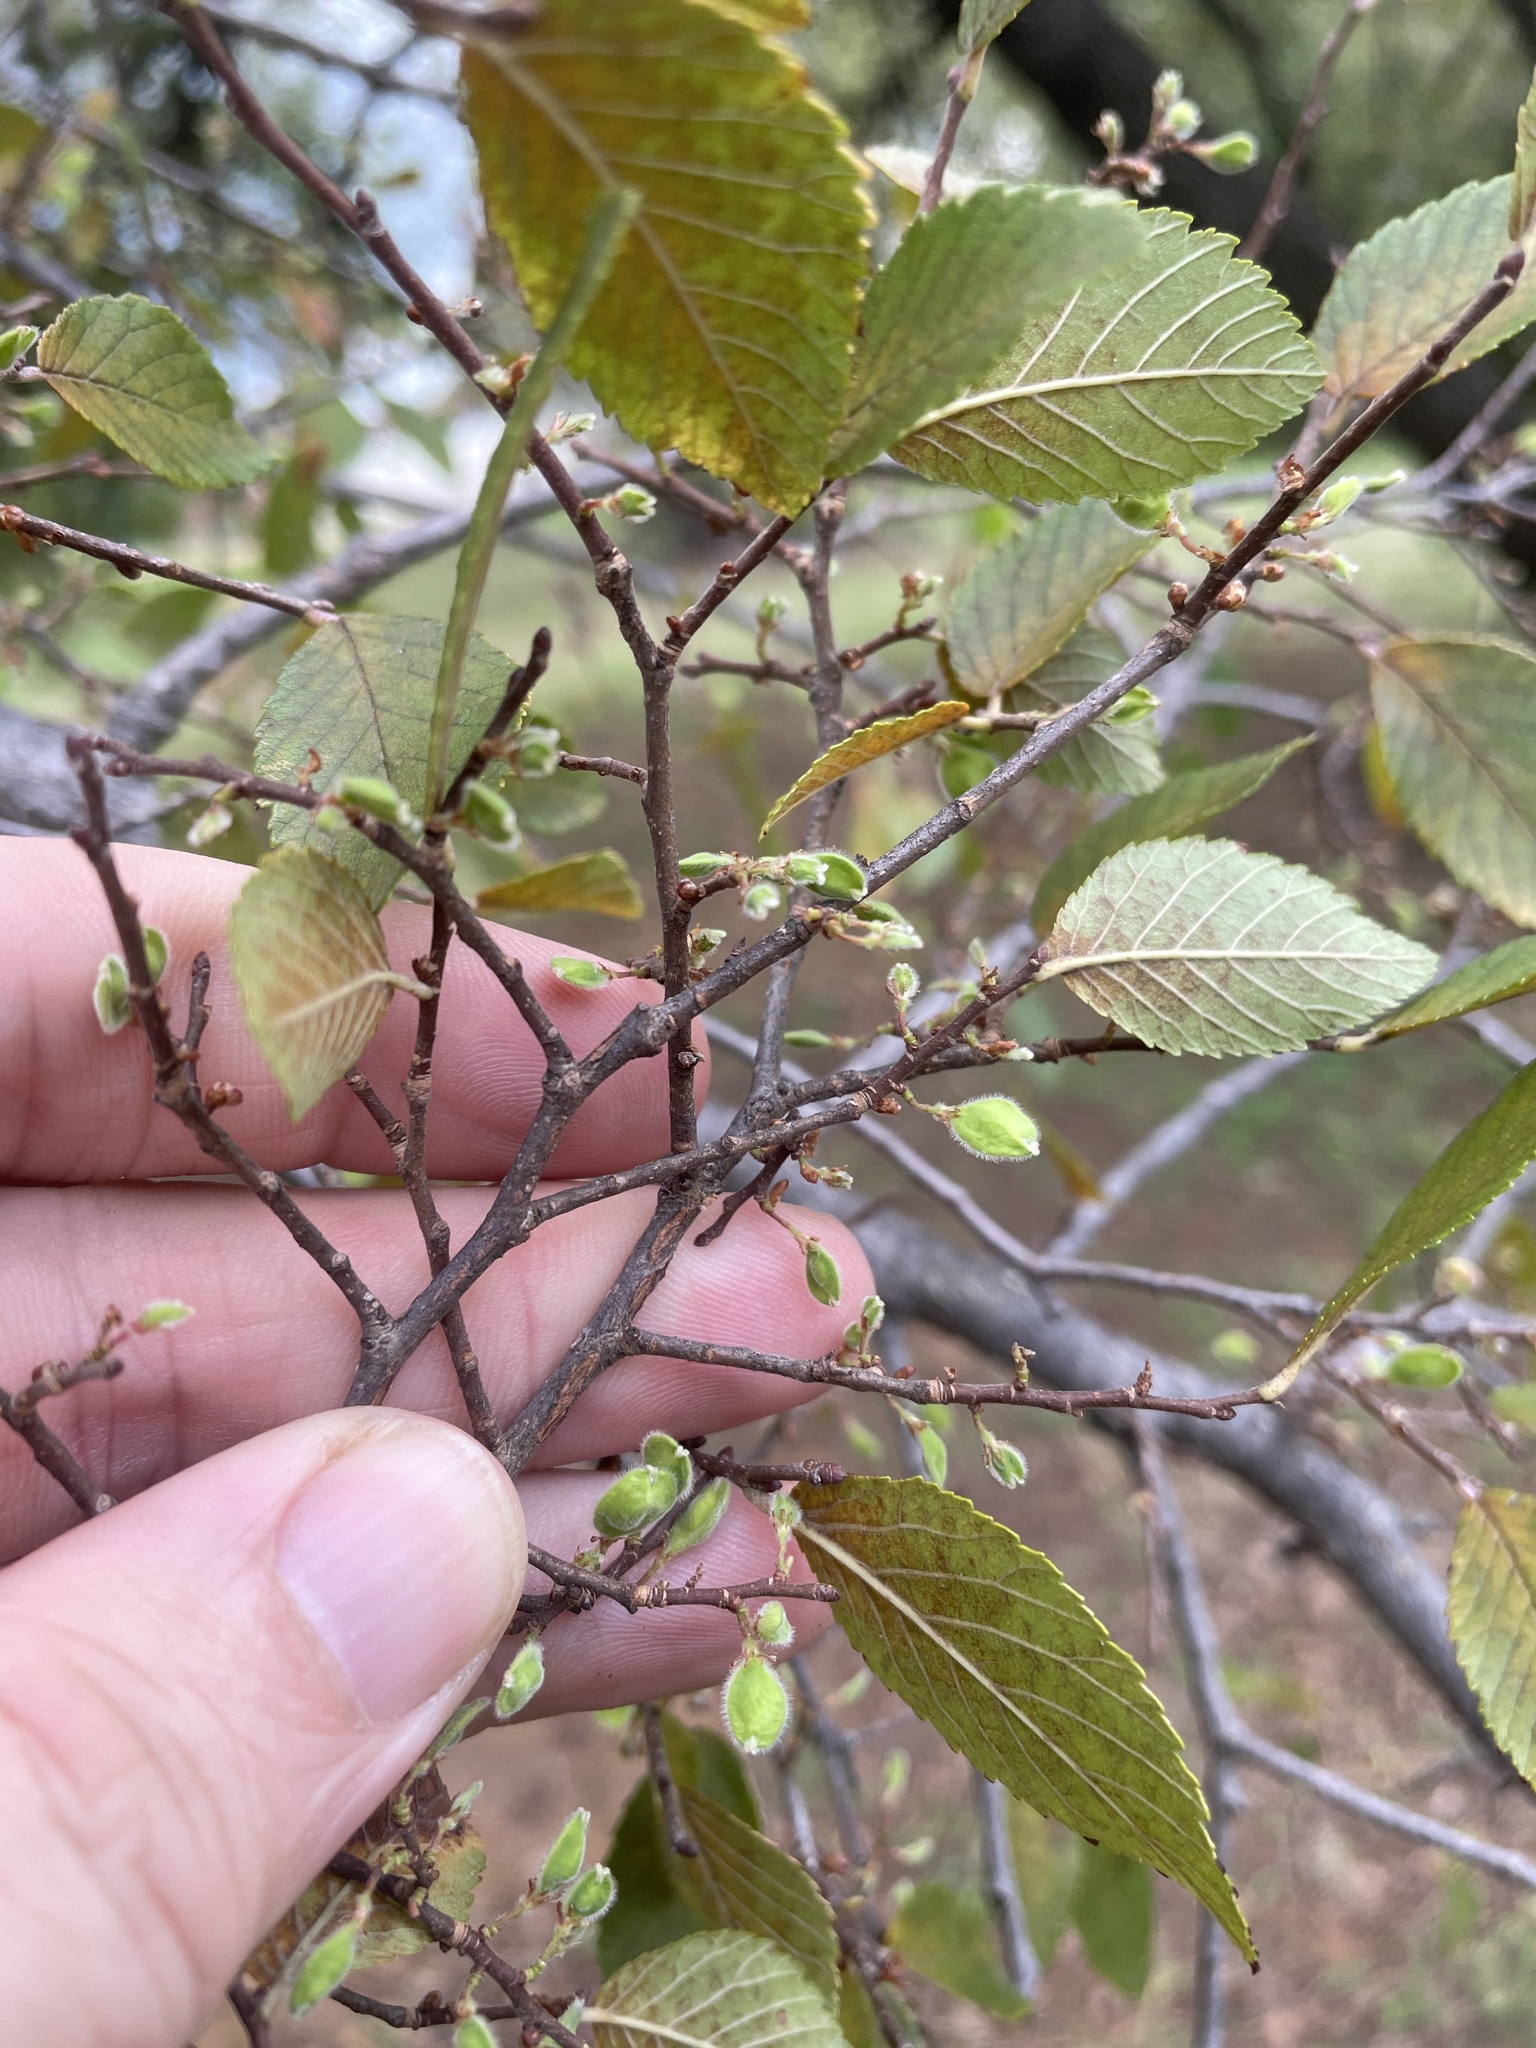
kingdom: Plantae
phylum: Tracheophyta
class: Magnoliopsida
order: Rosales
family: Ulmaceae
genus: Ulmus
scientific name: Ulmus crassifolia
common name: Basket elm
